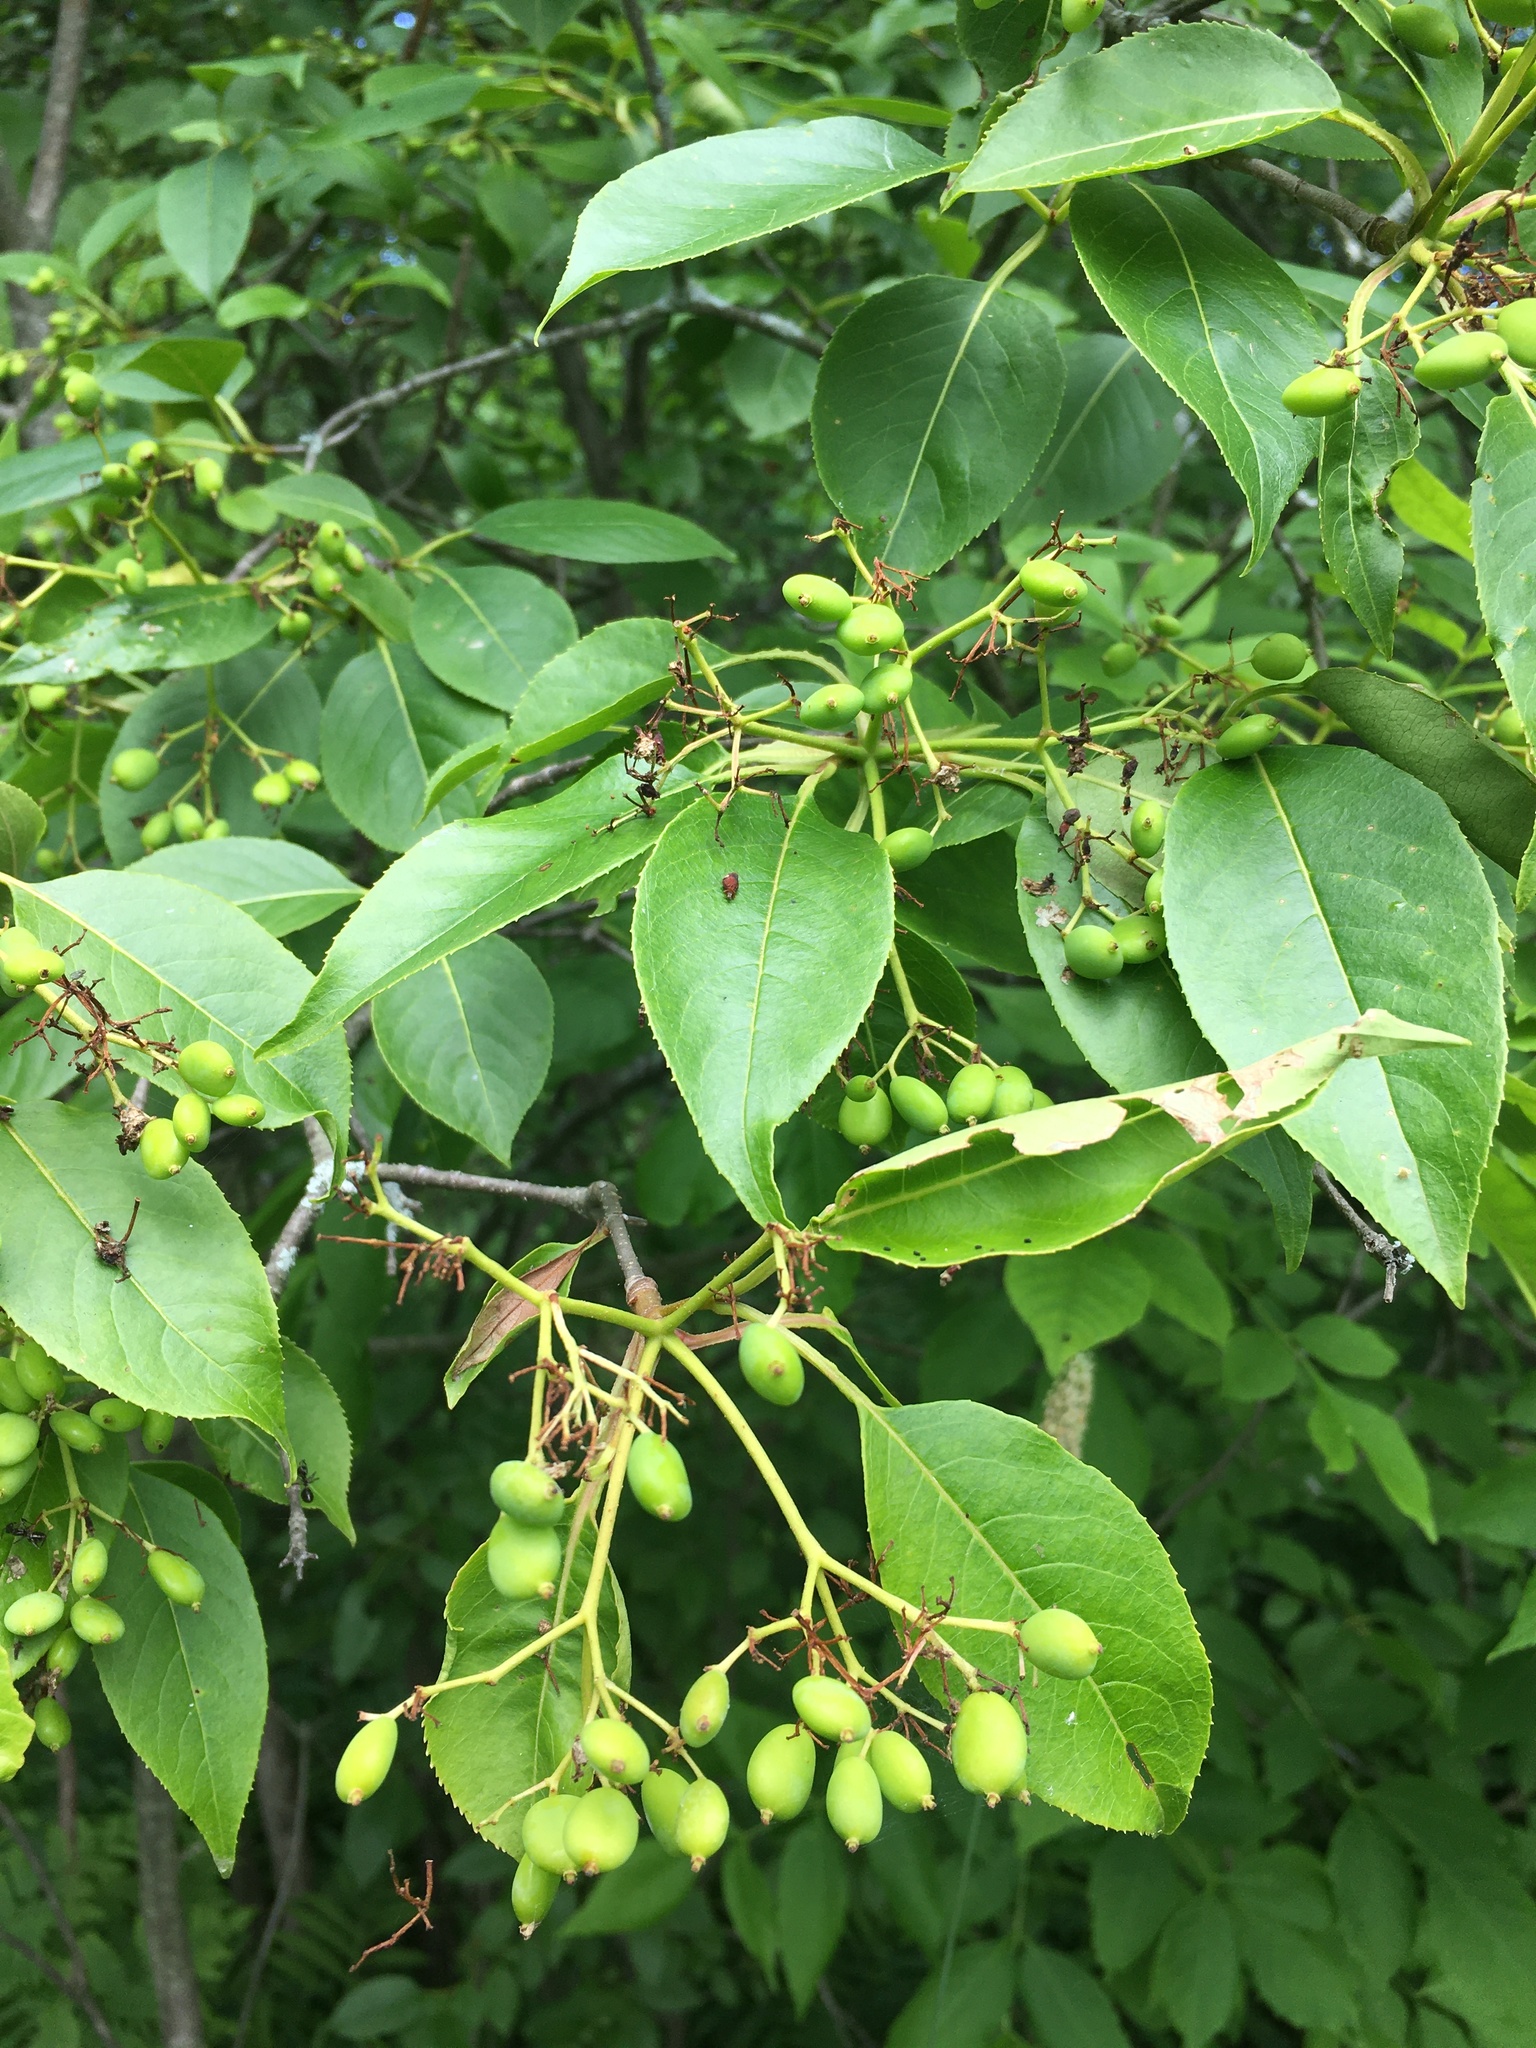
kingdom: Plantae
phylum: Tracheophyta
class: Magnoliopsida
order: Dipsacales
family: Viburnaceae
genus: Viburnum
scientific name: Viburnum lentago
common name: Black haw
